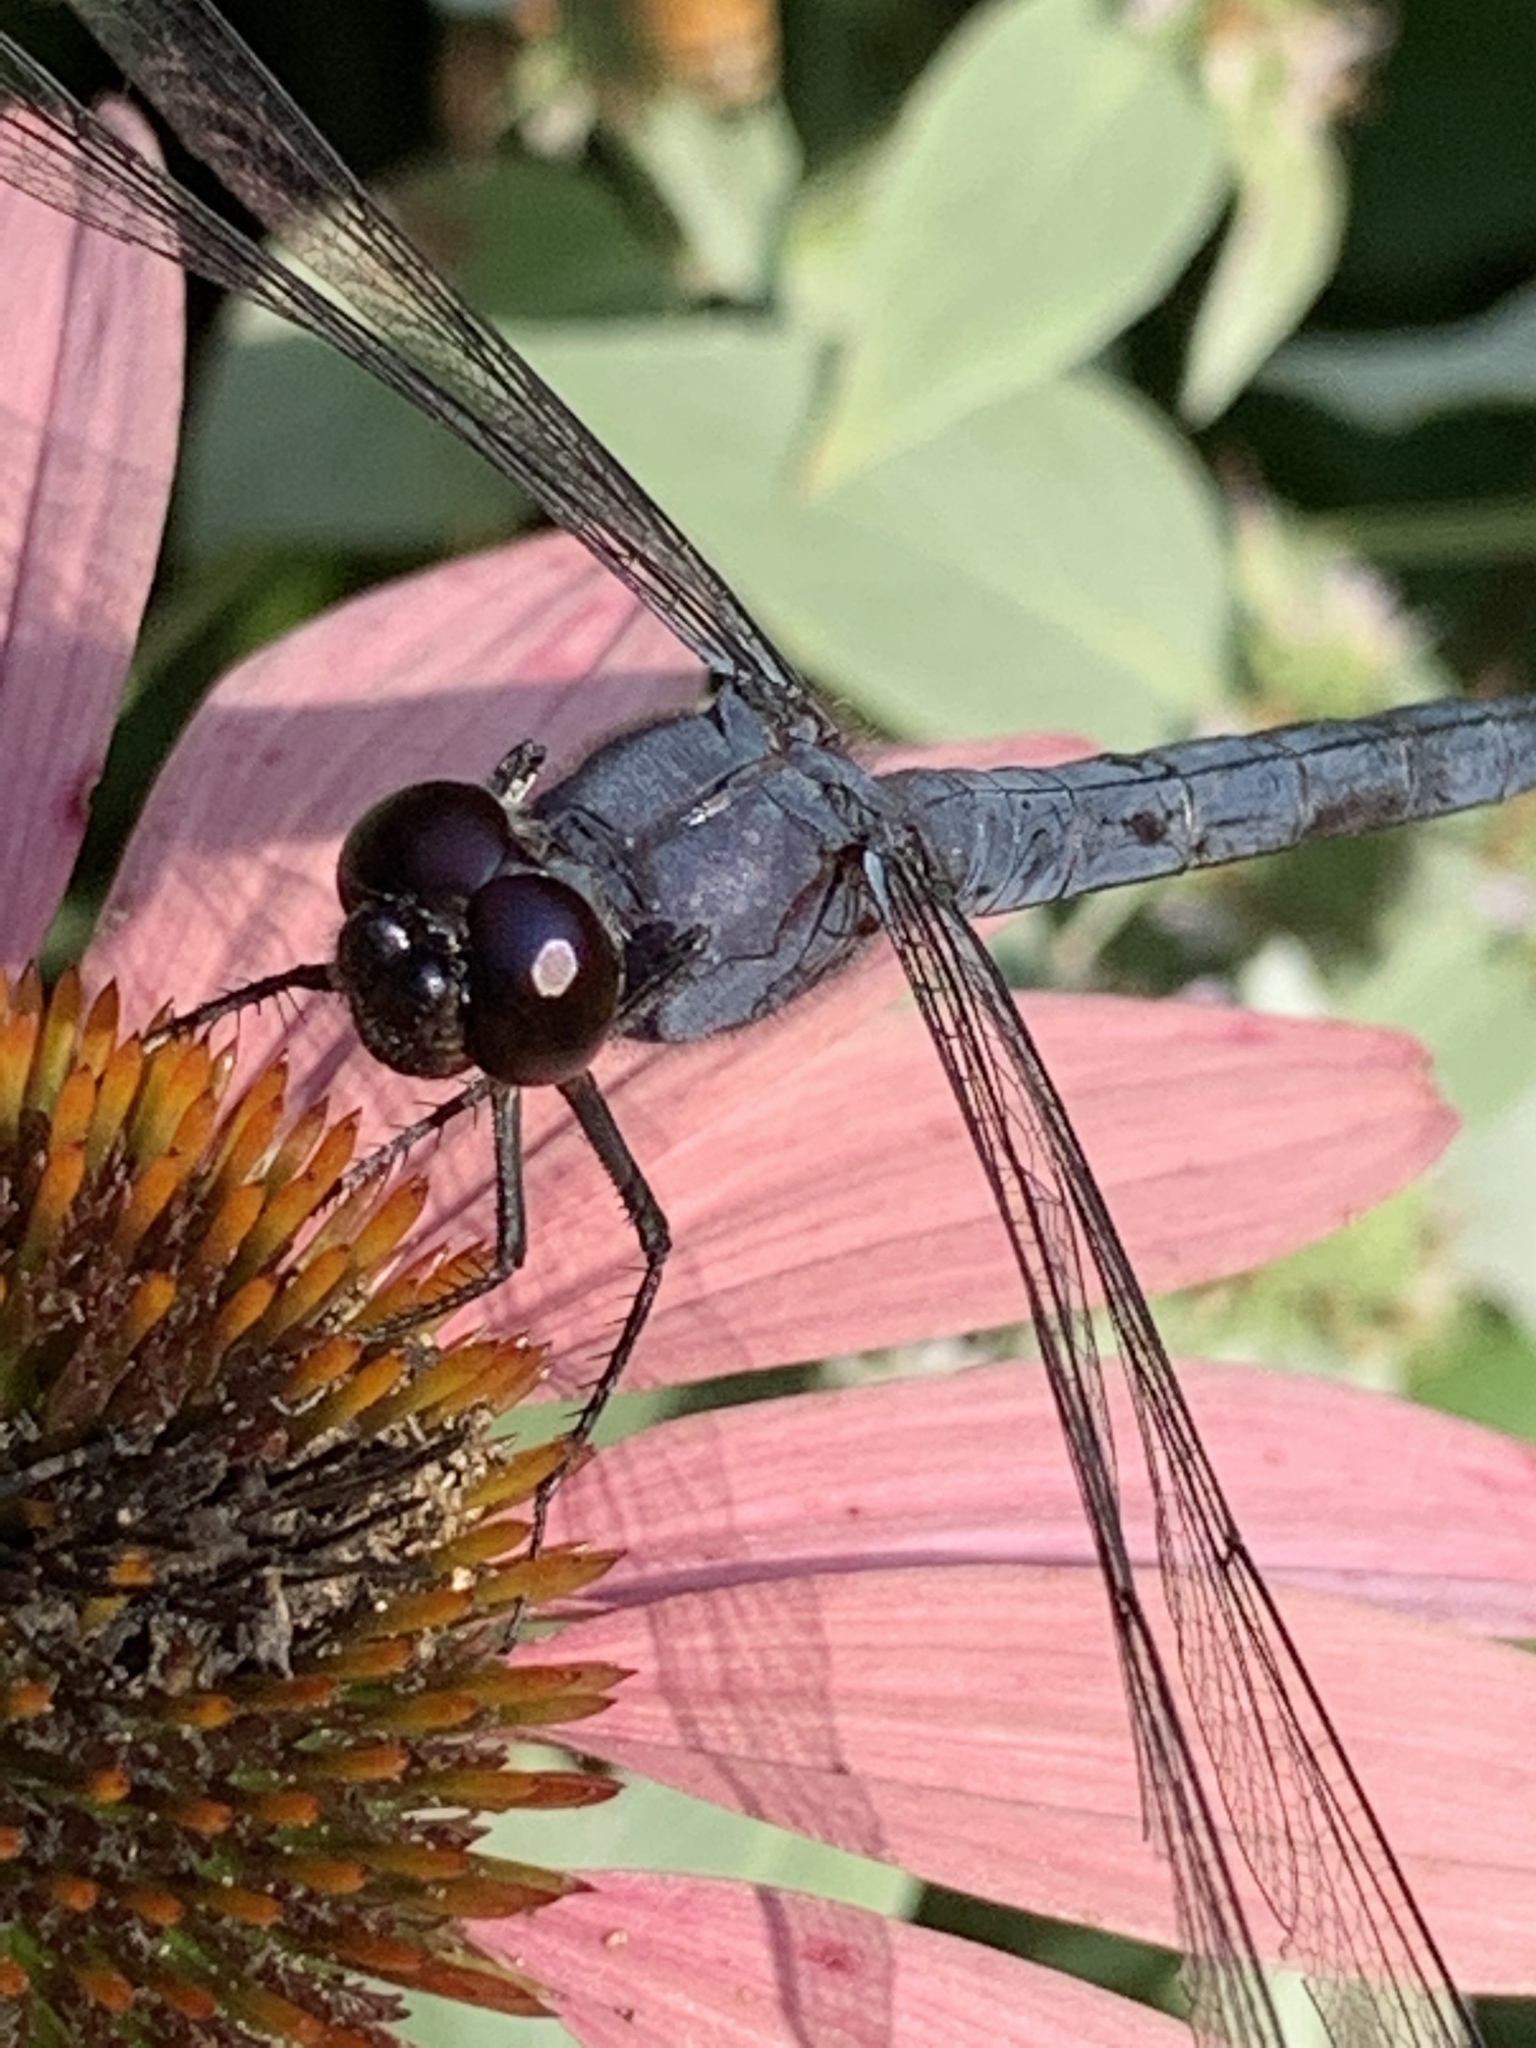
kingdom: Animalia
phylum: Arthropoda
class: Insecta
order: Odonata
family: Libellulidae
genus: Libellula
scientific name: Libellula incesta
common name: Slaty skimmer
